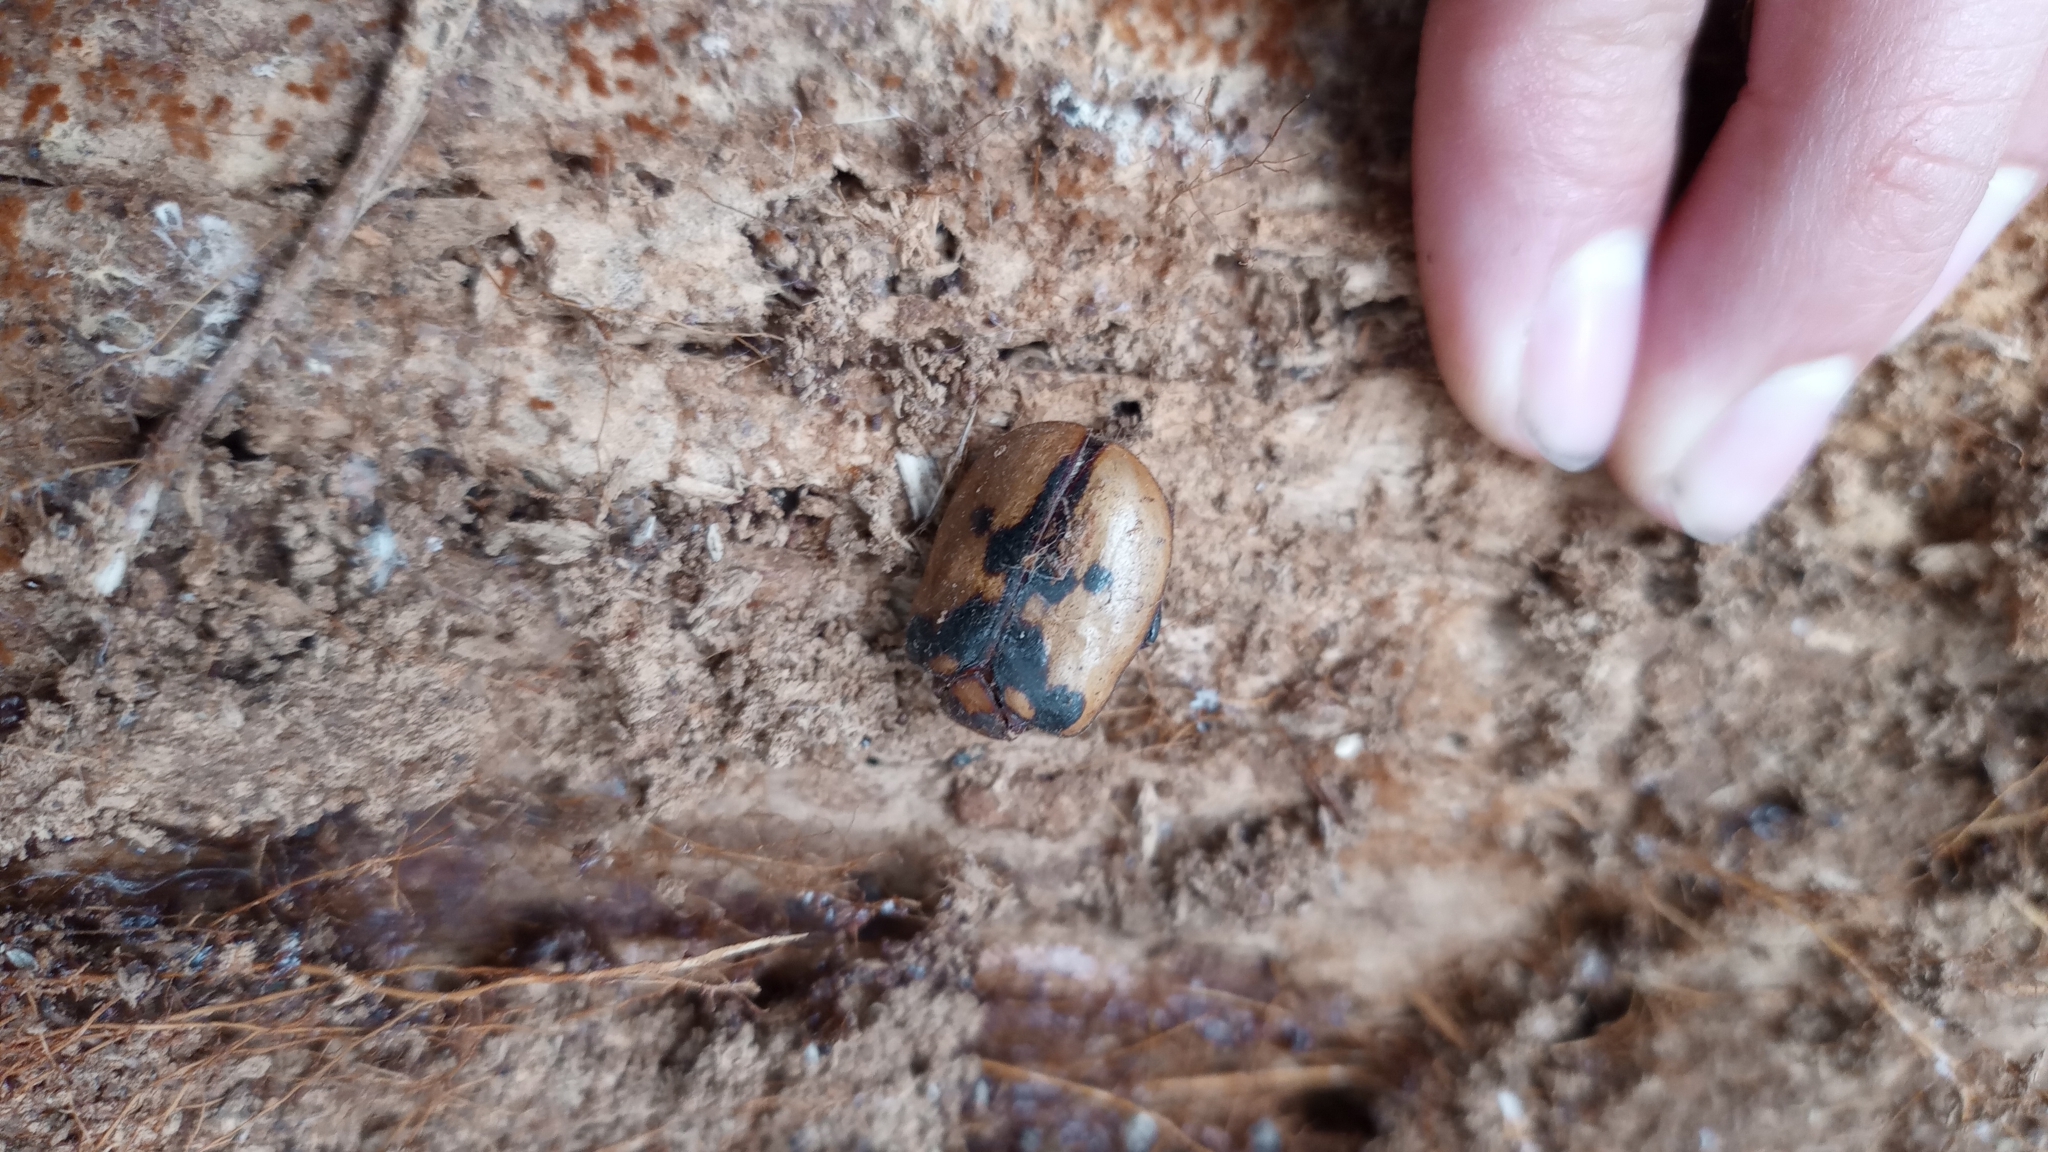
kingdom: Animalia
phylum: Arthropoda
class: Insecta
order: Coleoptera
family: Scarabaeidae
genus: Cyclocephala
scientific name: Cyclocephala mafaffa
